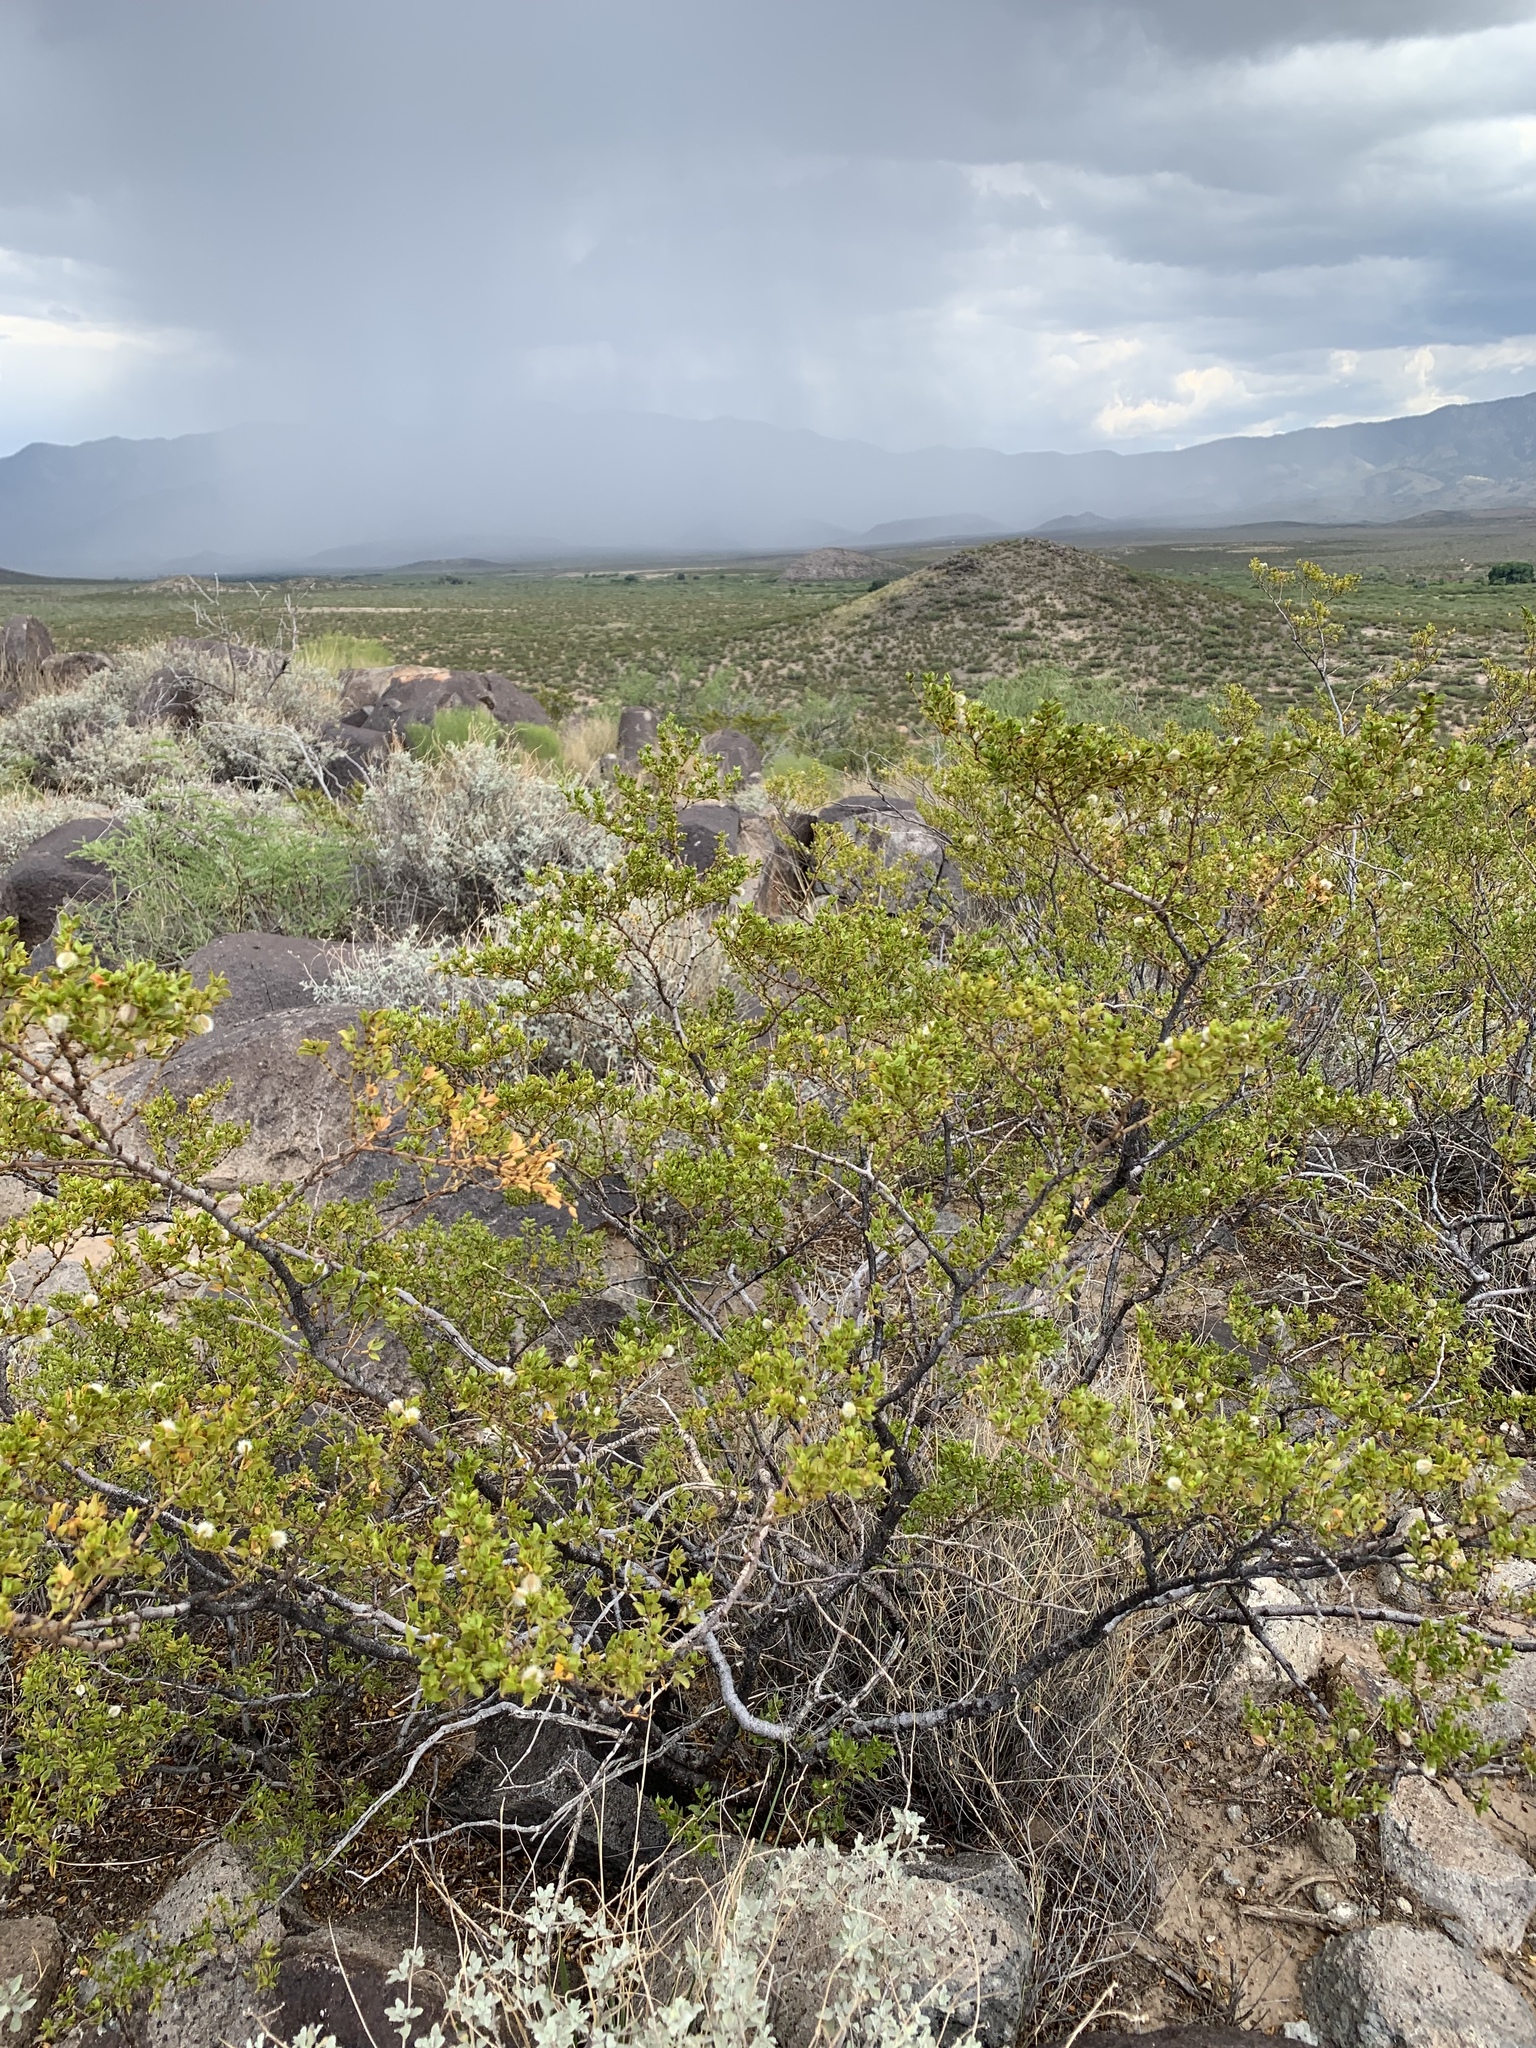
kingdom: Plantae
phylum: Tracheophyta
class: Magnoliopsida
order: Zygophyllales
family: Zygophyllaceae
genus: Larrea
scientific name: Larrea tridentata
